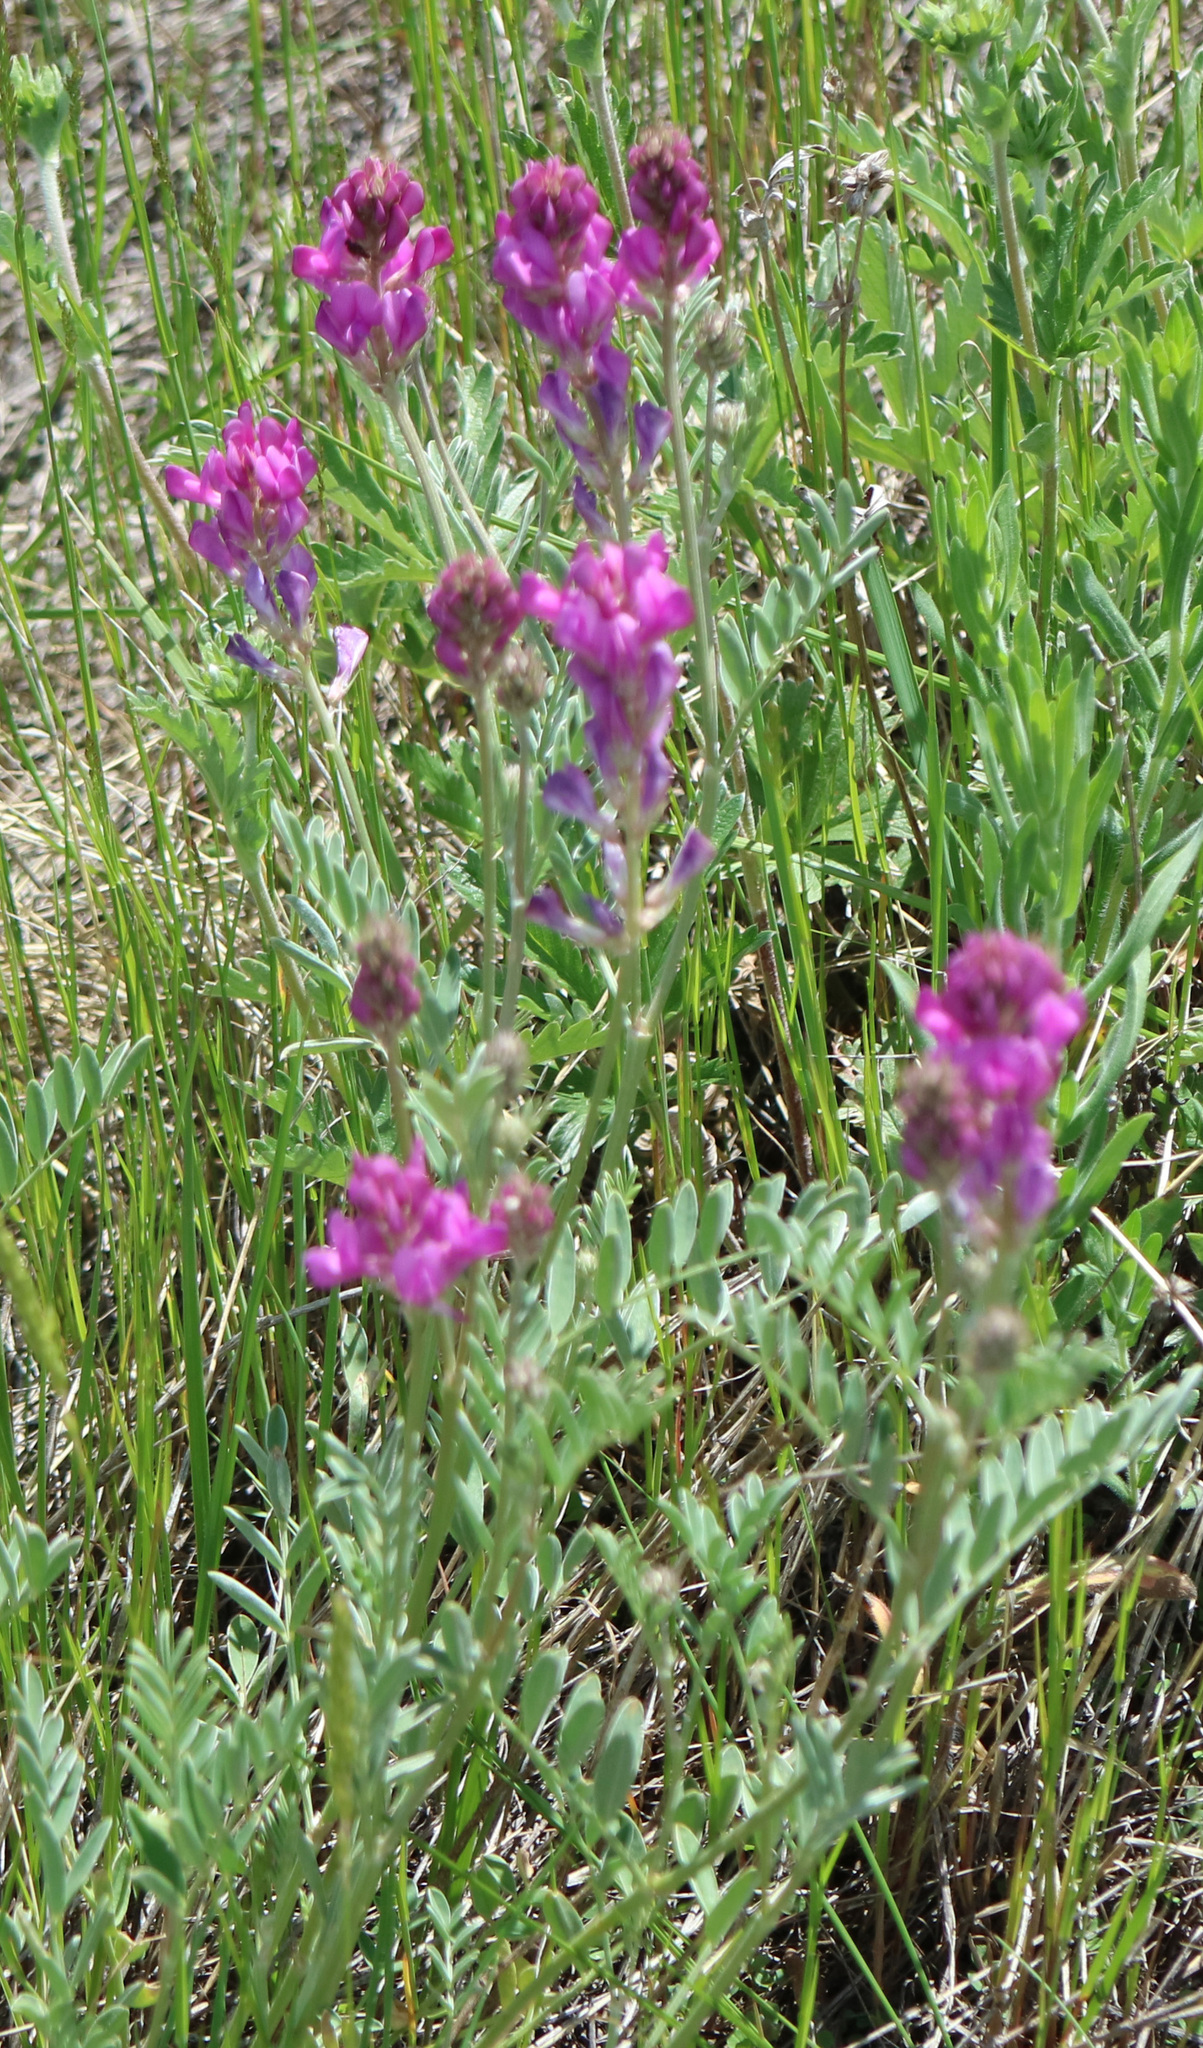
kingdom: Plantae
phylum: Tracheophyta
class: Magnoliopsida
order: Fabales
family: Fabaceae
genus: Hedysarum
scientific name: Hedysarum boreale
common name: Northern sweet-vetch
